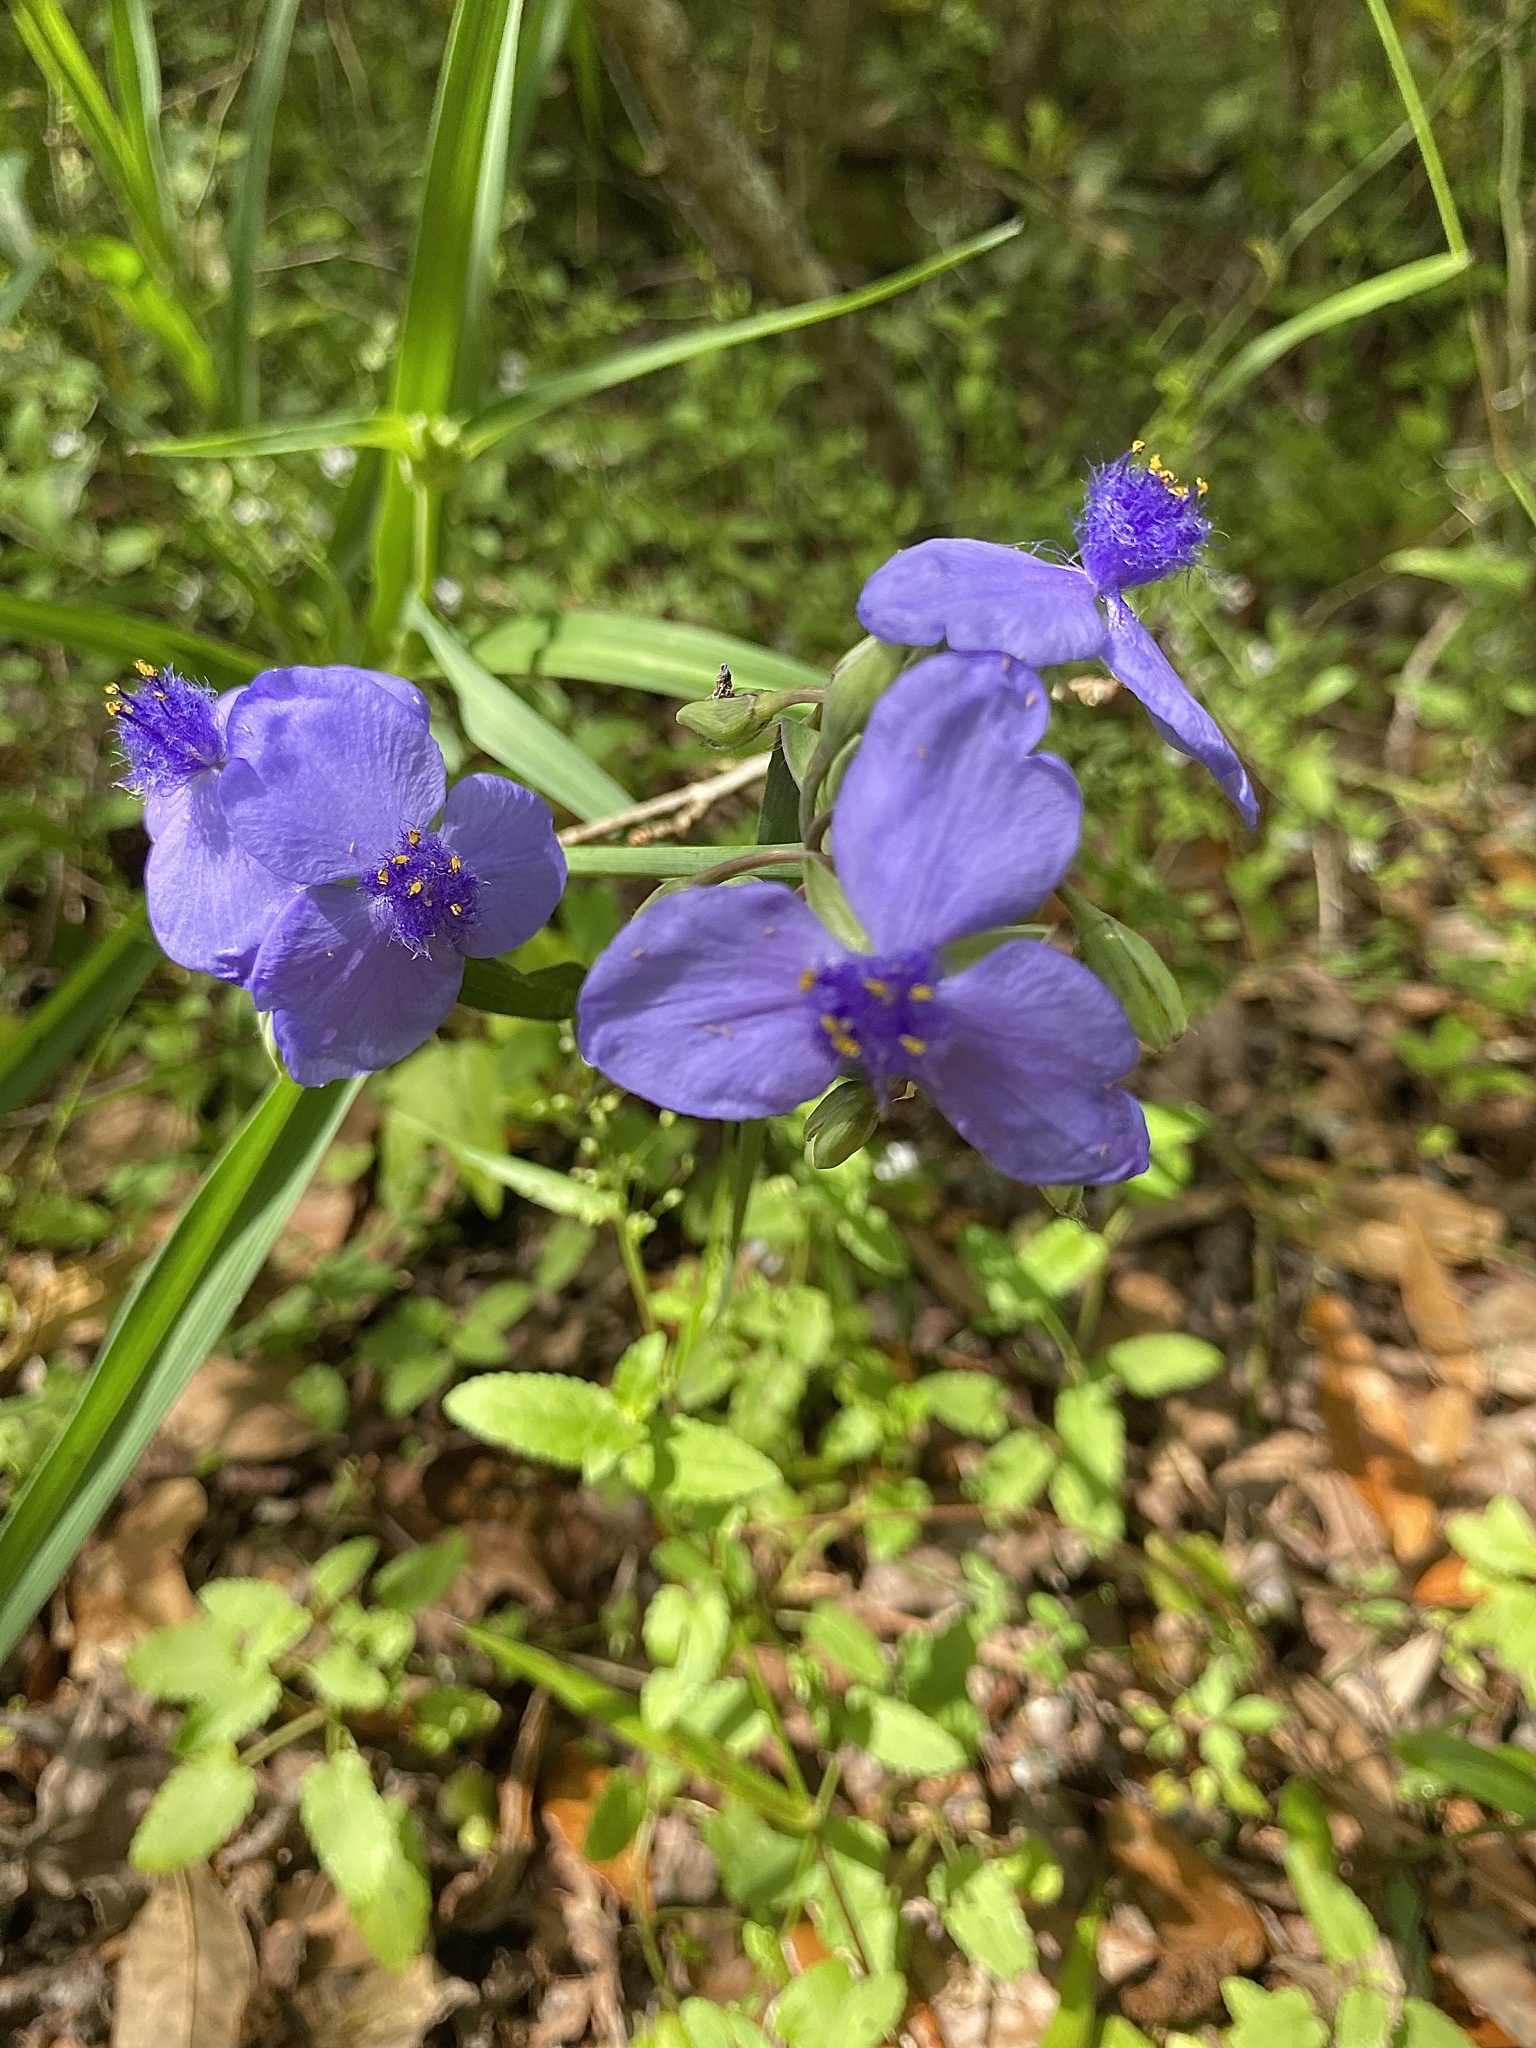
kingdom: Plantae
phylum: Tracheophyta
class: Liliopsida
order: Commelinales
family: Commelinaceae
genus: Tradescantia
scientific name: Tradescantia ohiensis
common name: Ohio spiderwort
